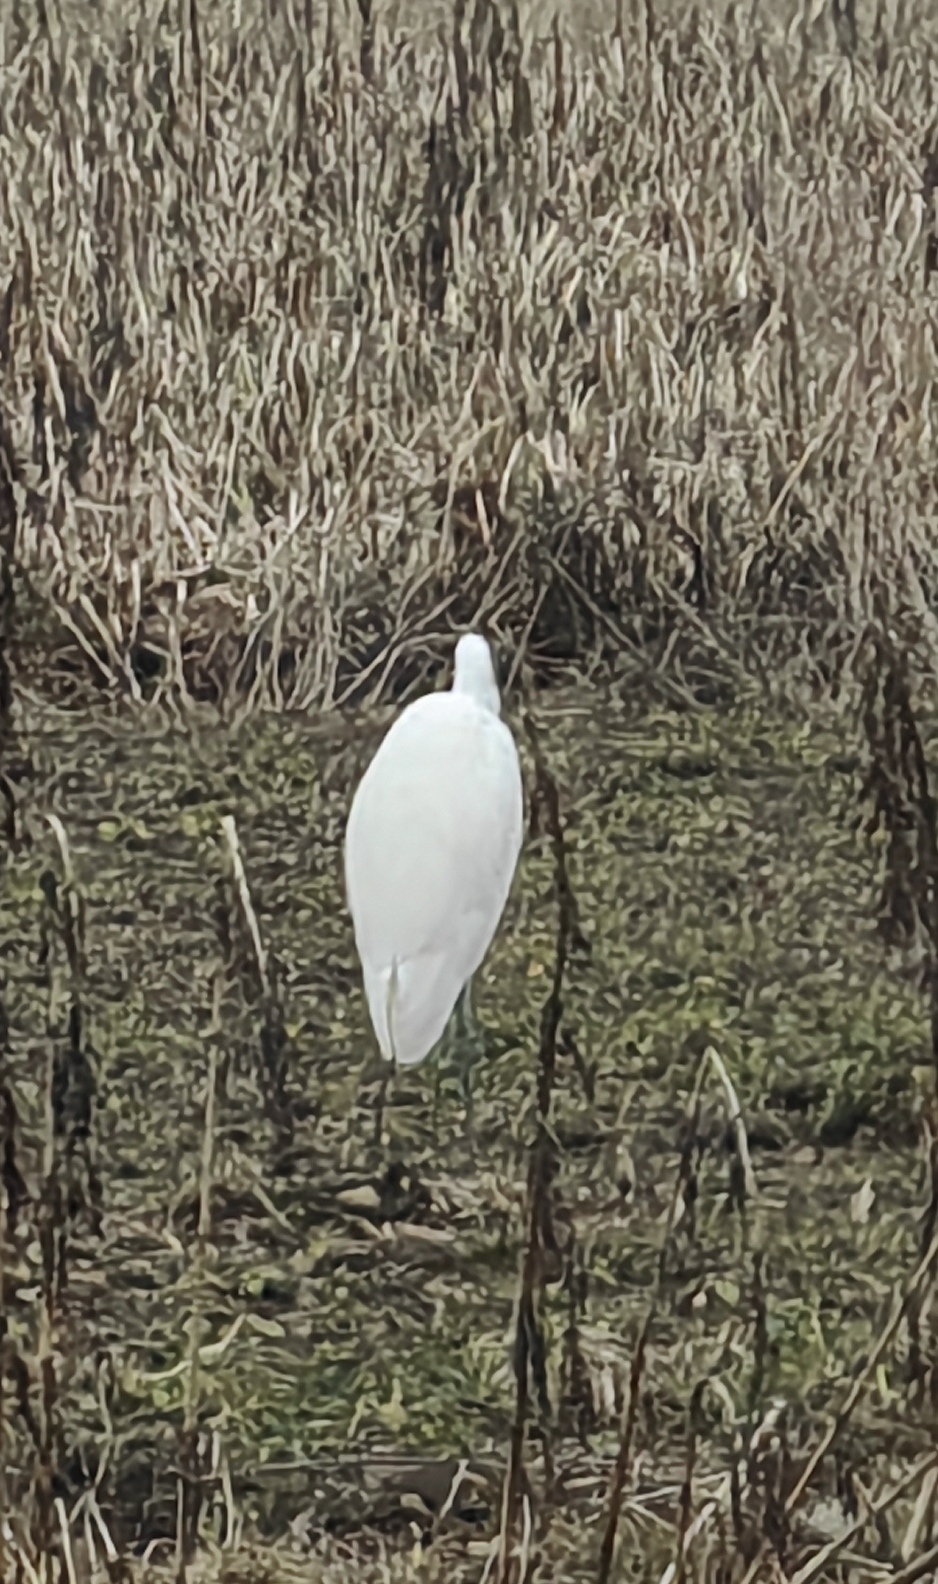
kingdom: Animalia
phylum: Chordata
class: Aves
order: Pelecaniformes
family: Ardeidae
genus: Ardea
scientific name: Ardea alba
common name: Great egret
